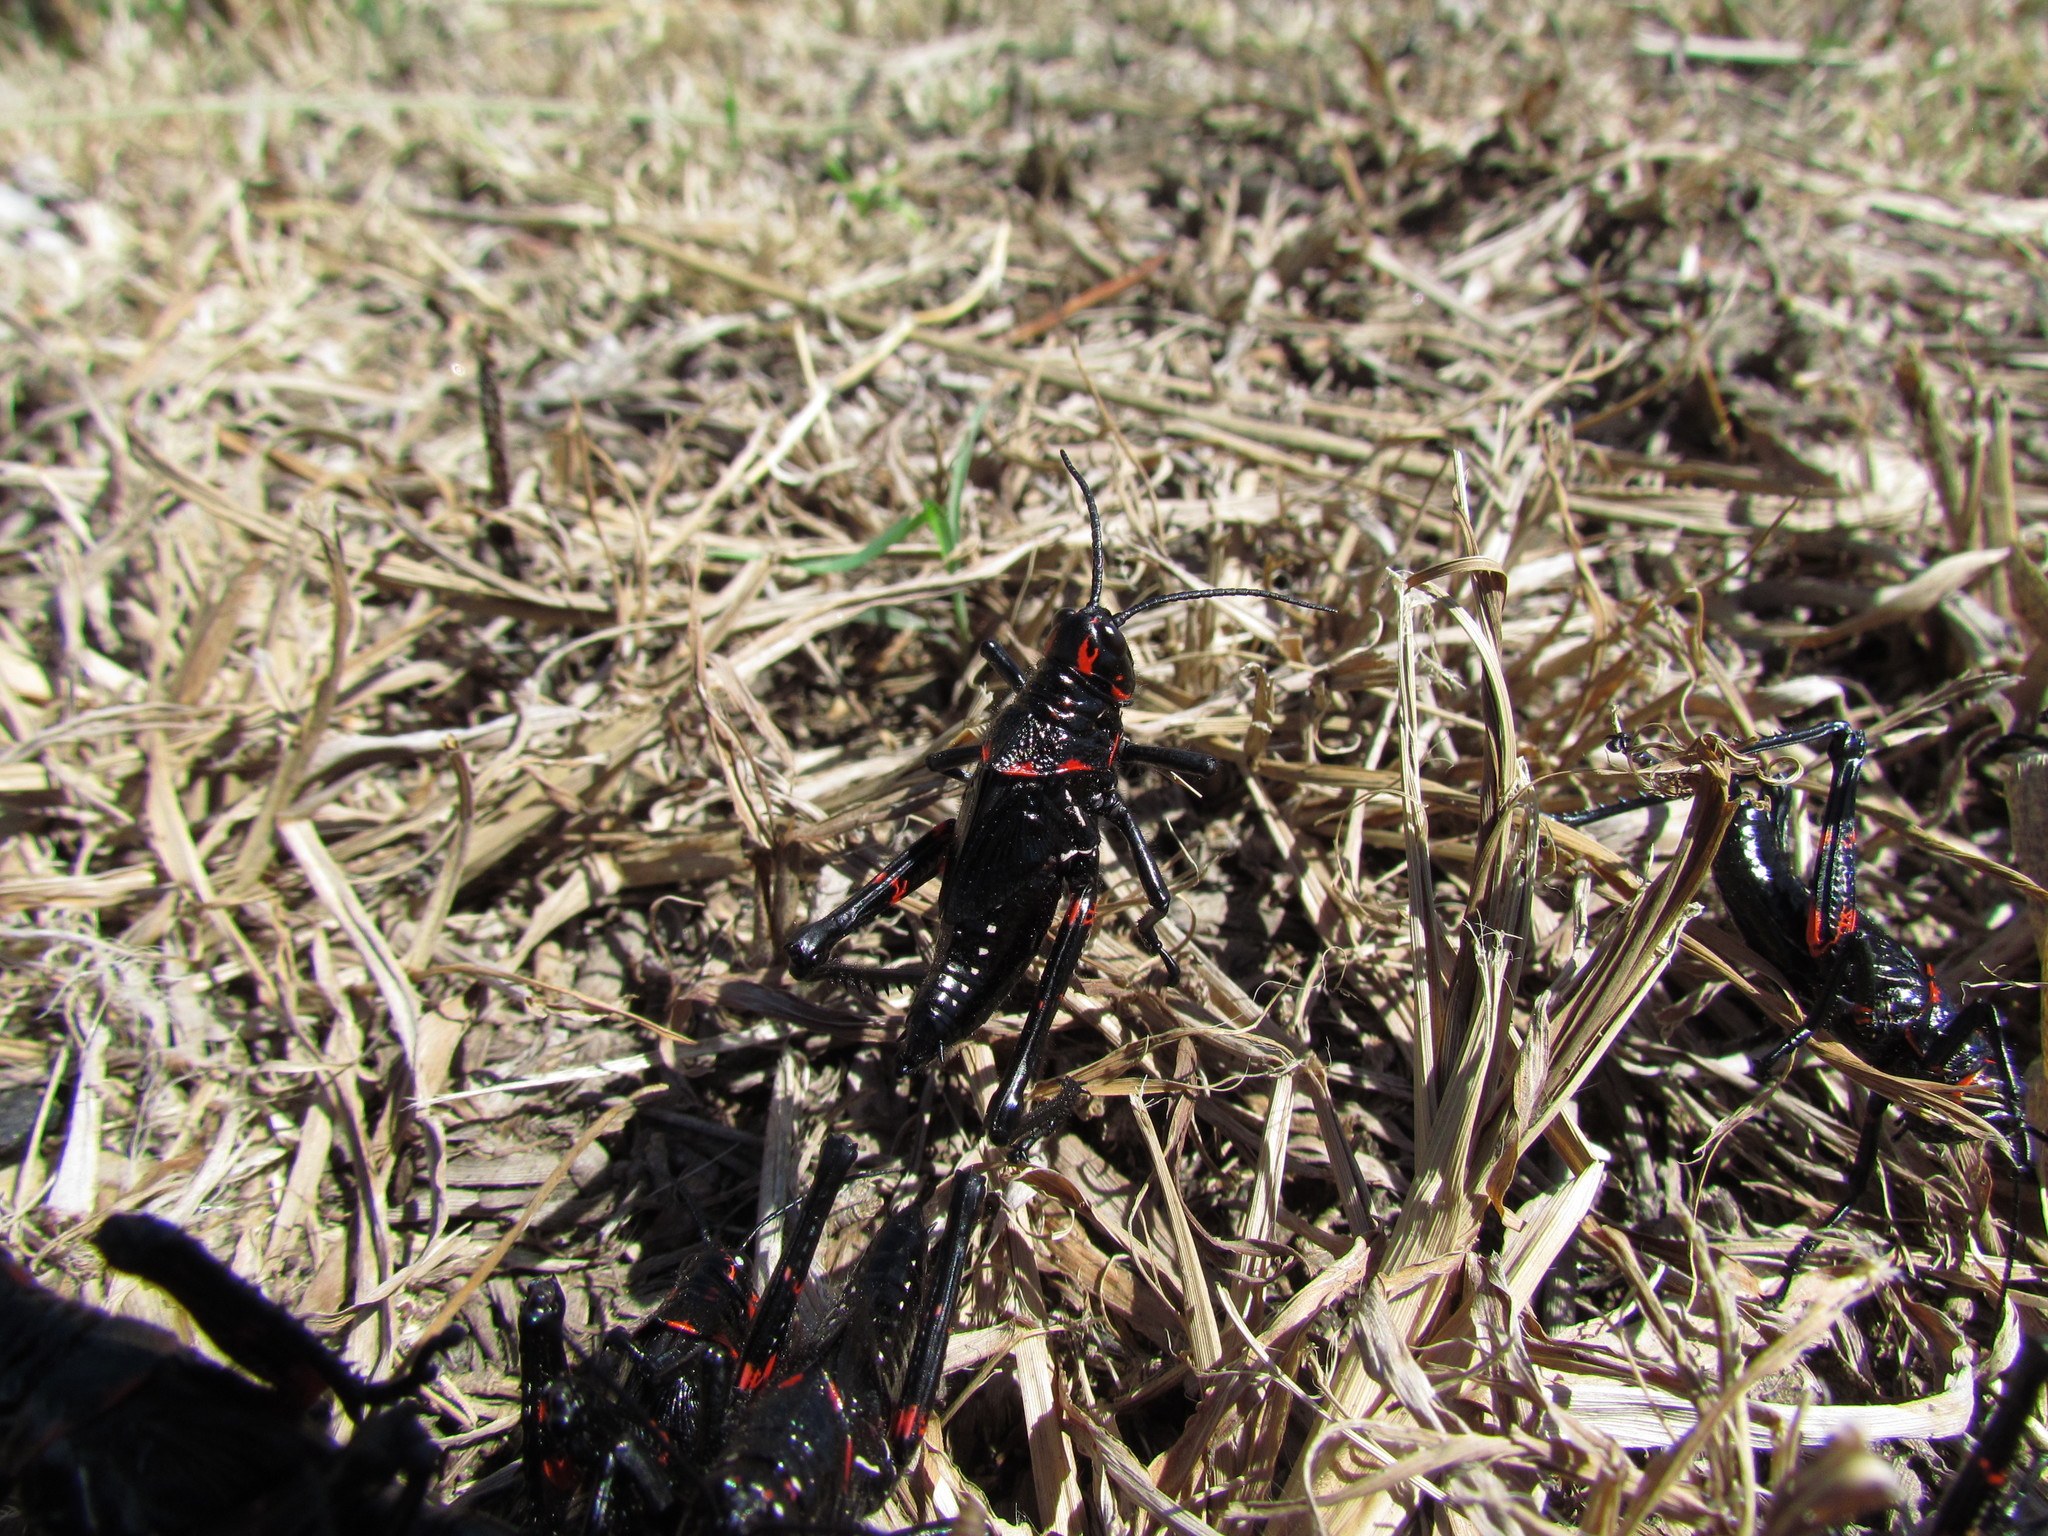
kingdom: Animalia
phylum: Arthropoda
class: Insecta
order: Orthoptera
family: Romaleidae
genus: Chromacris
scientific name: Chromacris speciosa
